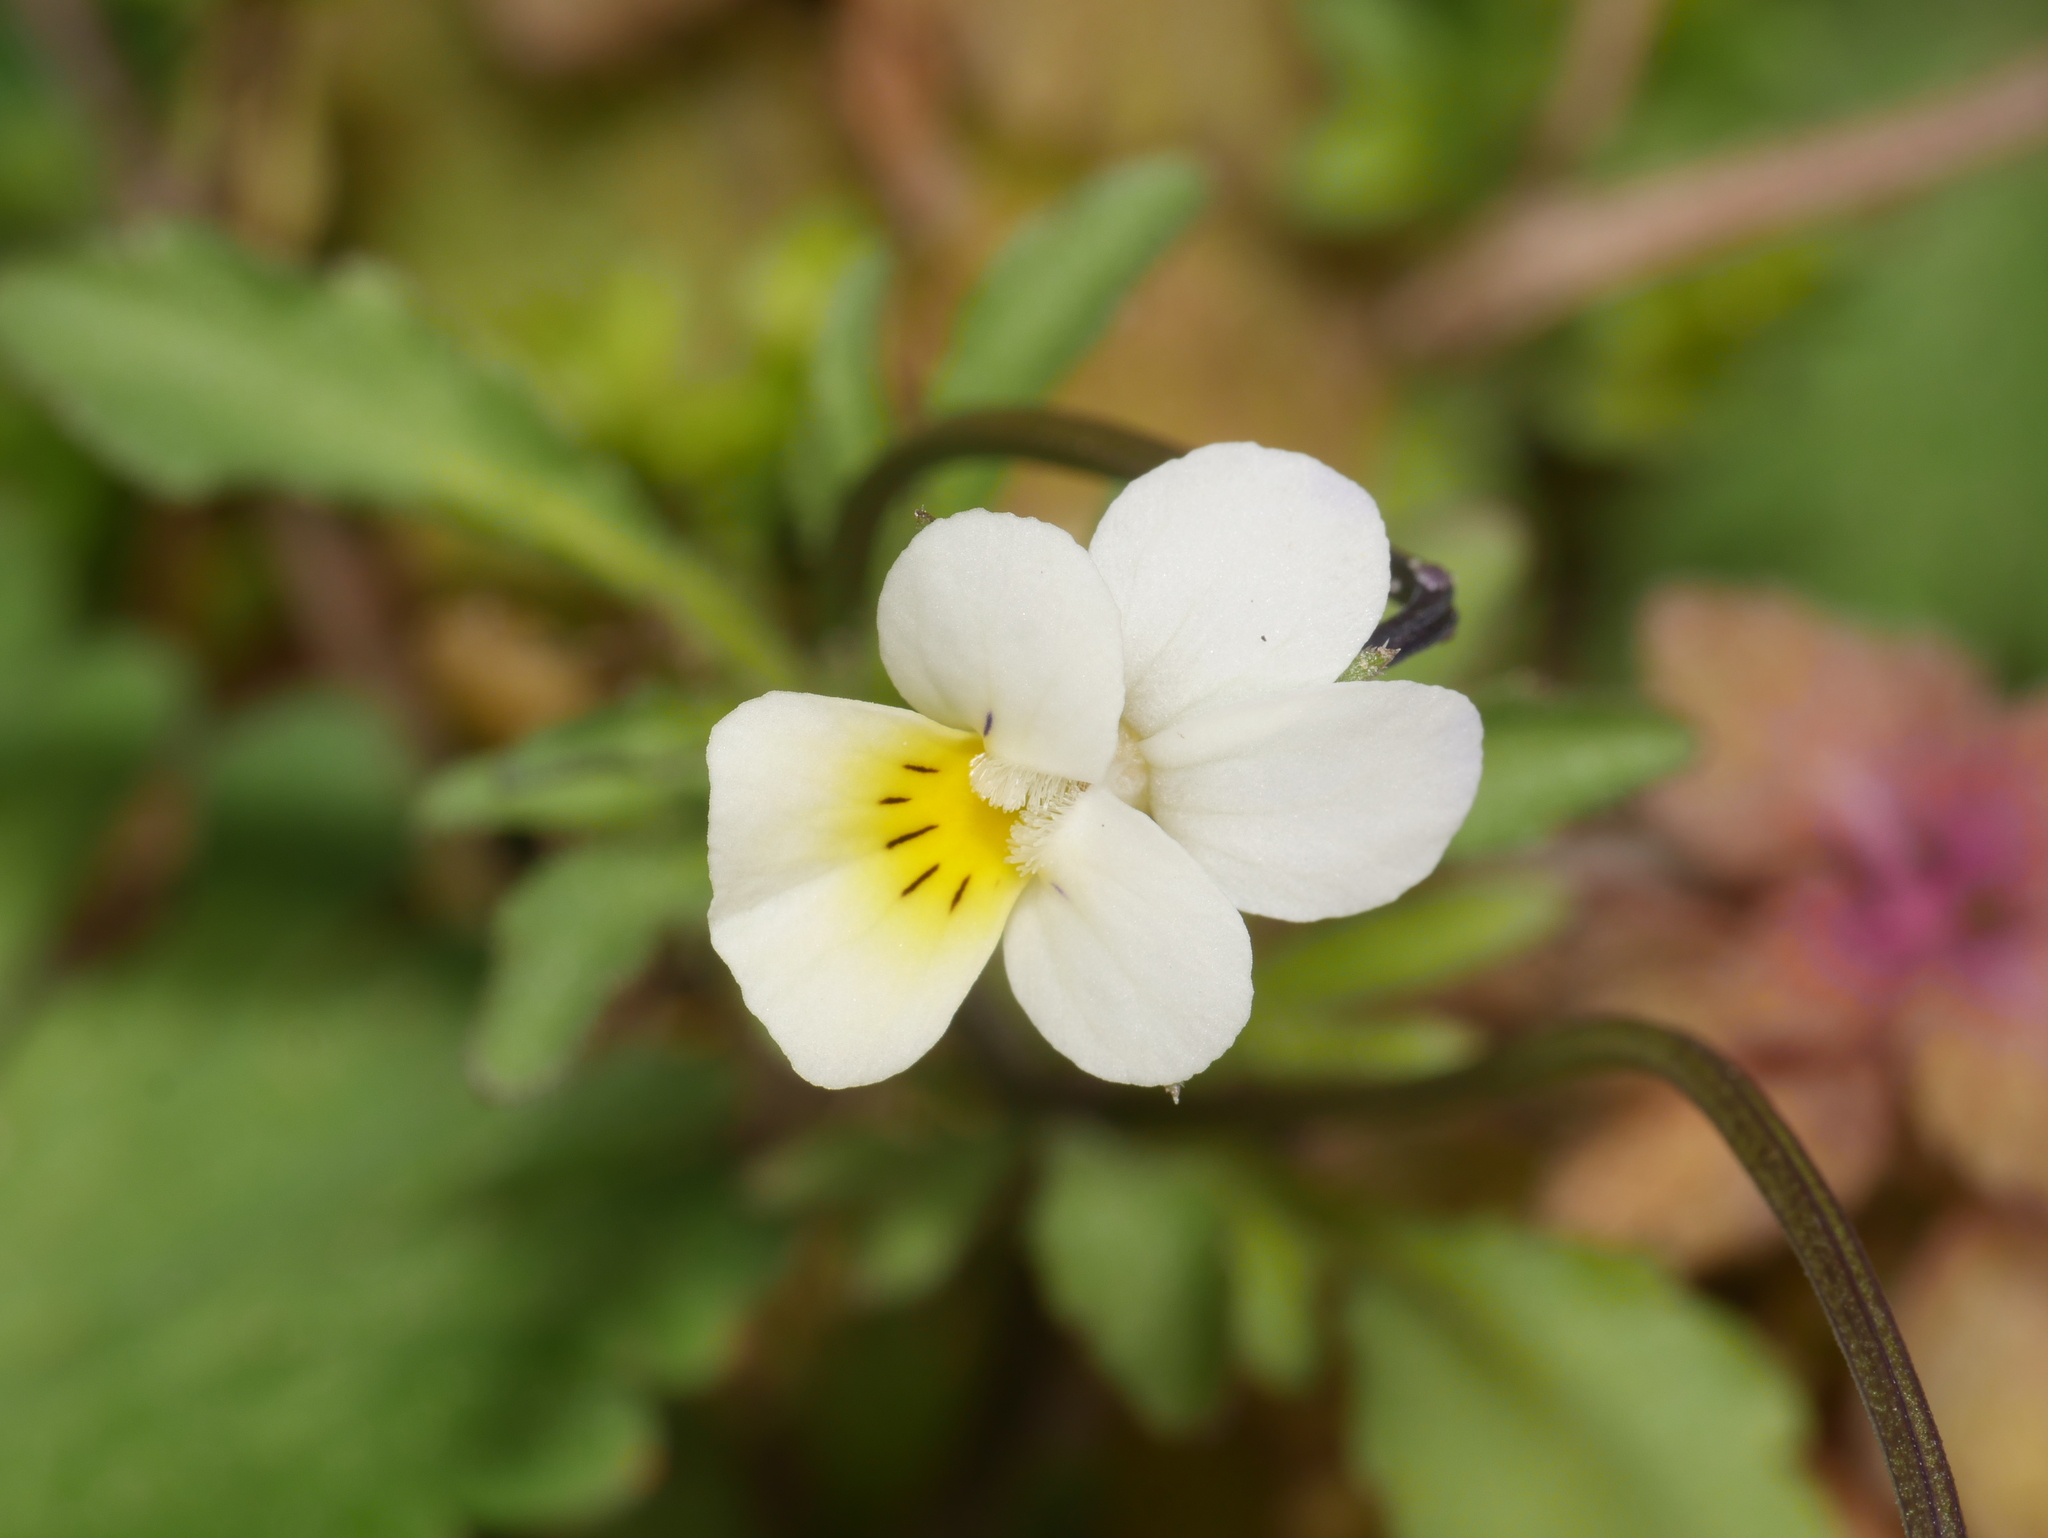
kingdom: Plantae
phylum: Tracheophyta
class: Magnoliopsida
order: Malpighiales
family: Violaceae
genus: Viola
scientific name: Viola arvensis
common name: Field pansy
